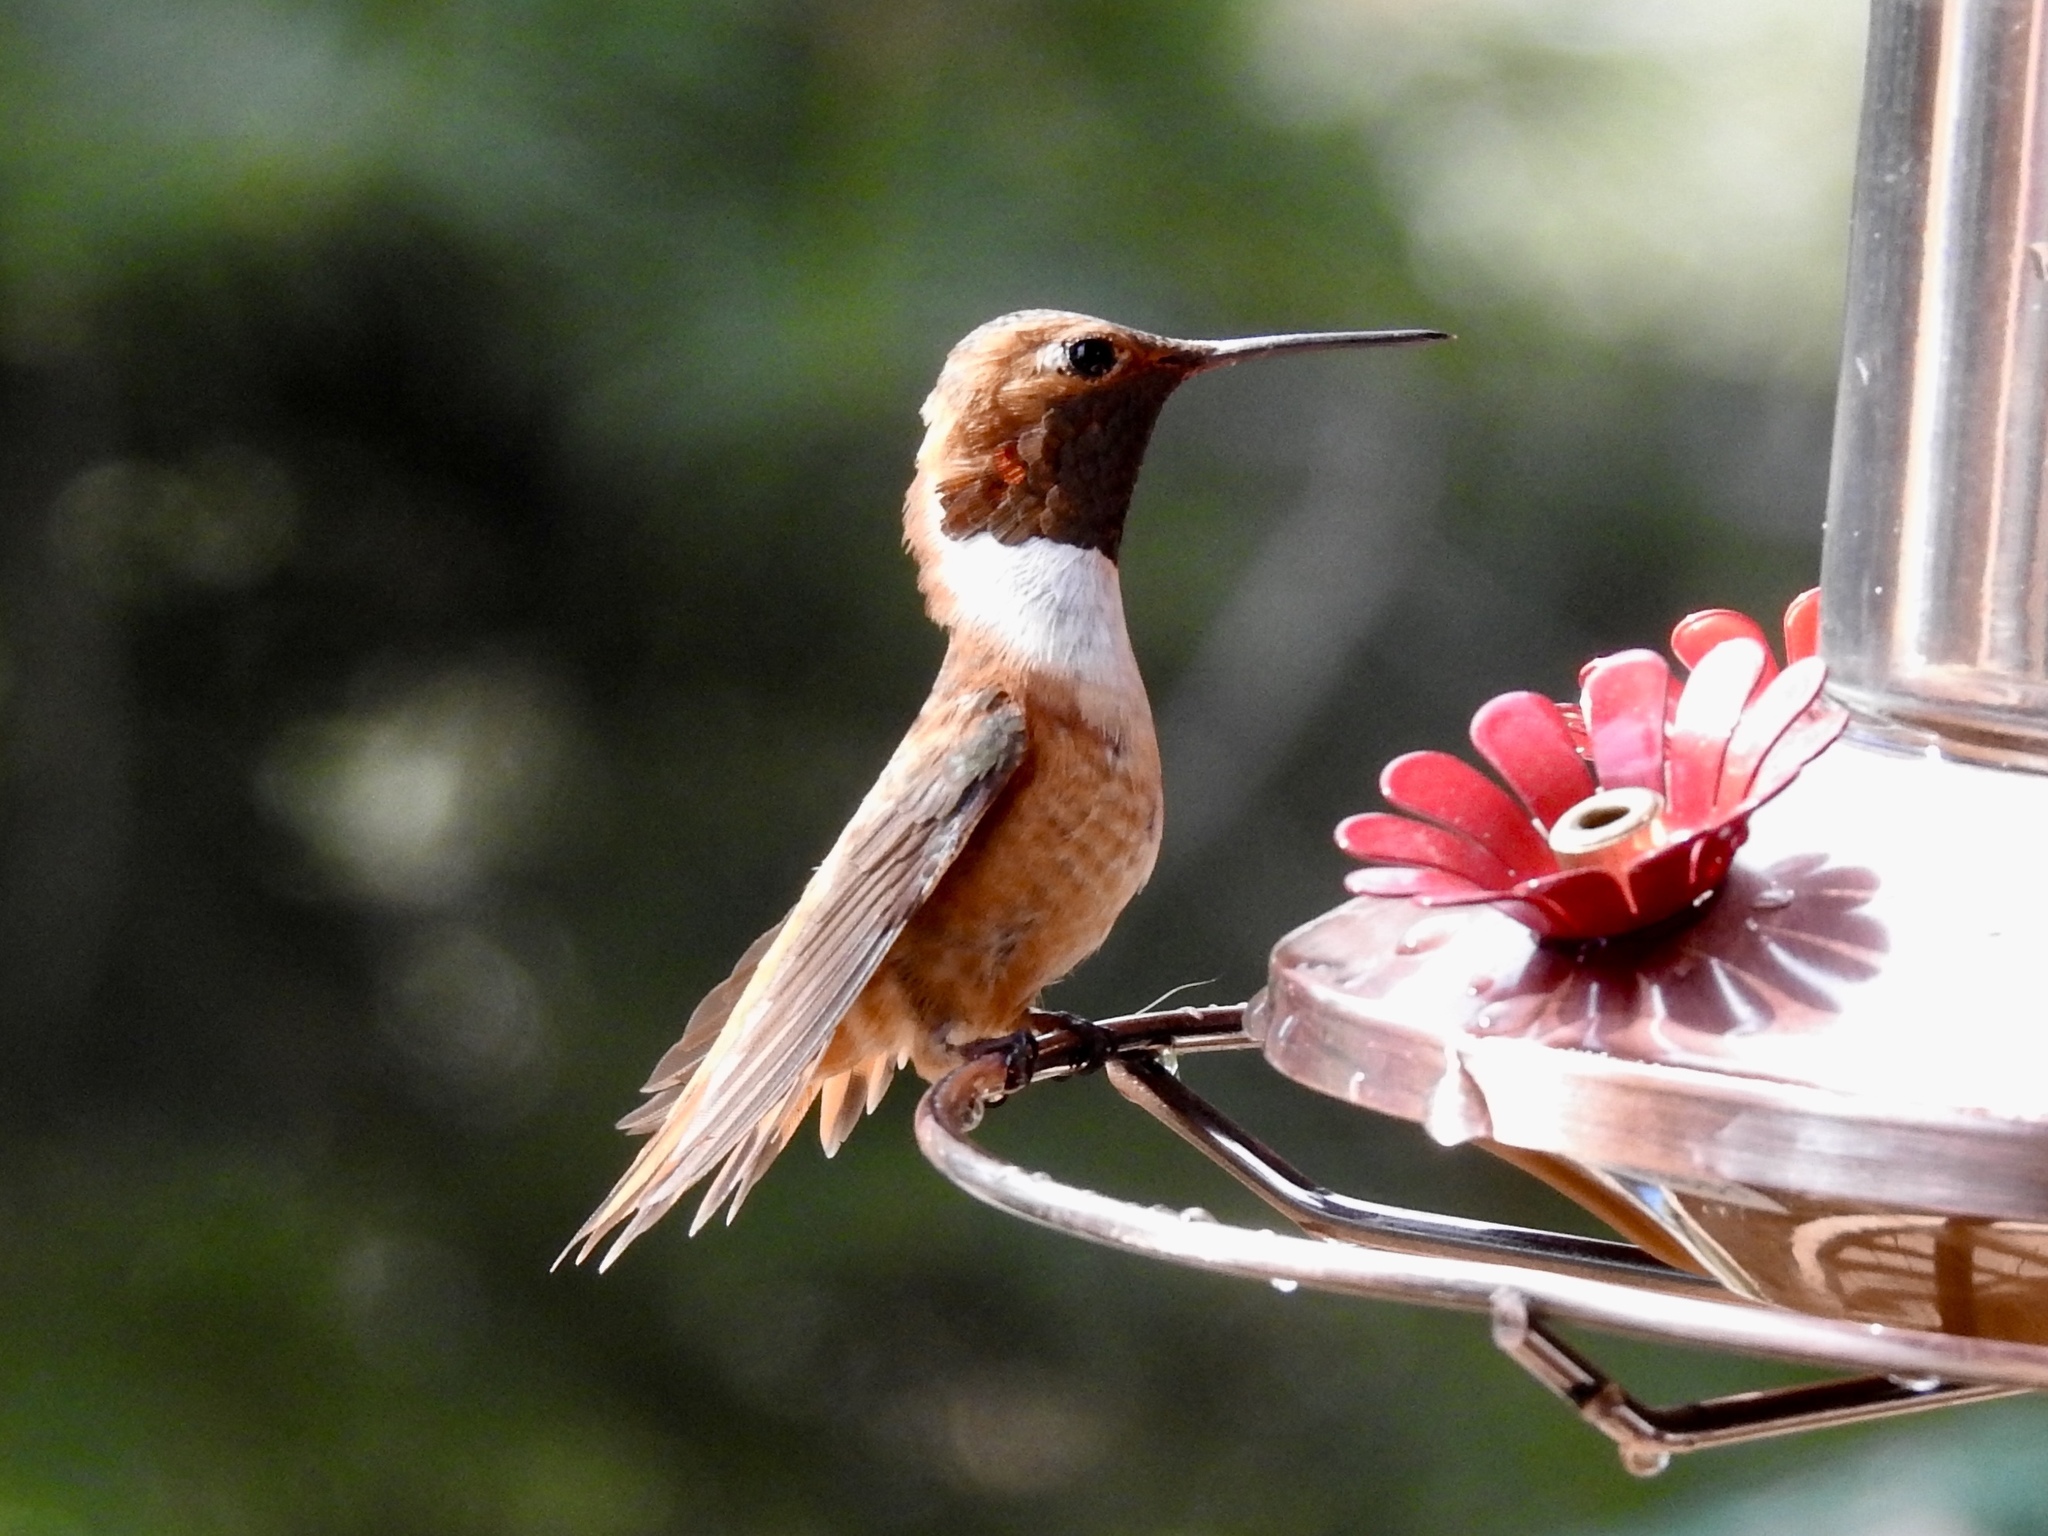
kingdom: Animalia
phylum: Chordata
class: Aves
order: Apodiformes
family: Trochilidae
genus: Selasphorus
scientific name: Selasphorus rufus
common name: Rufous hummingbird
